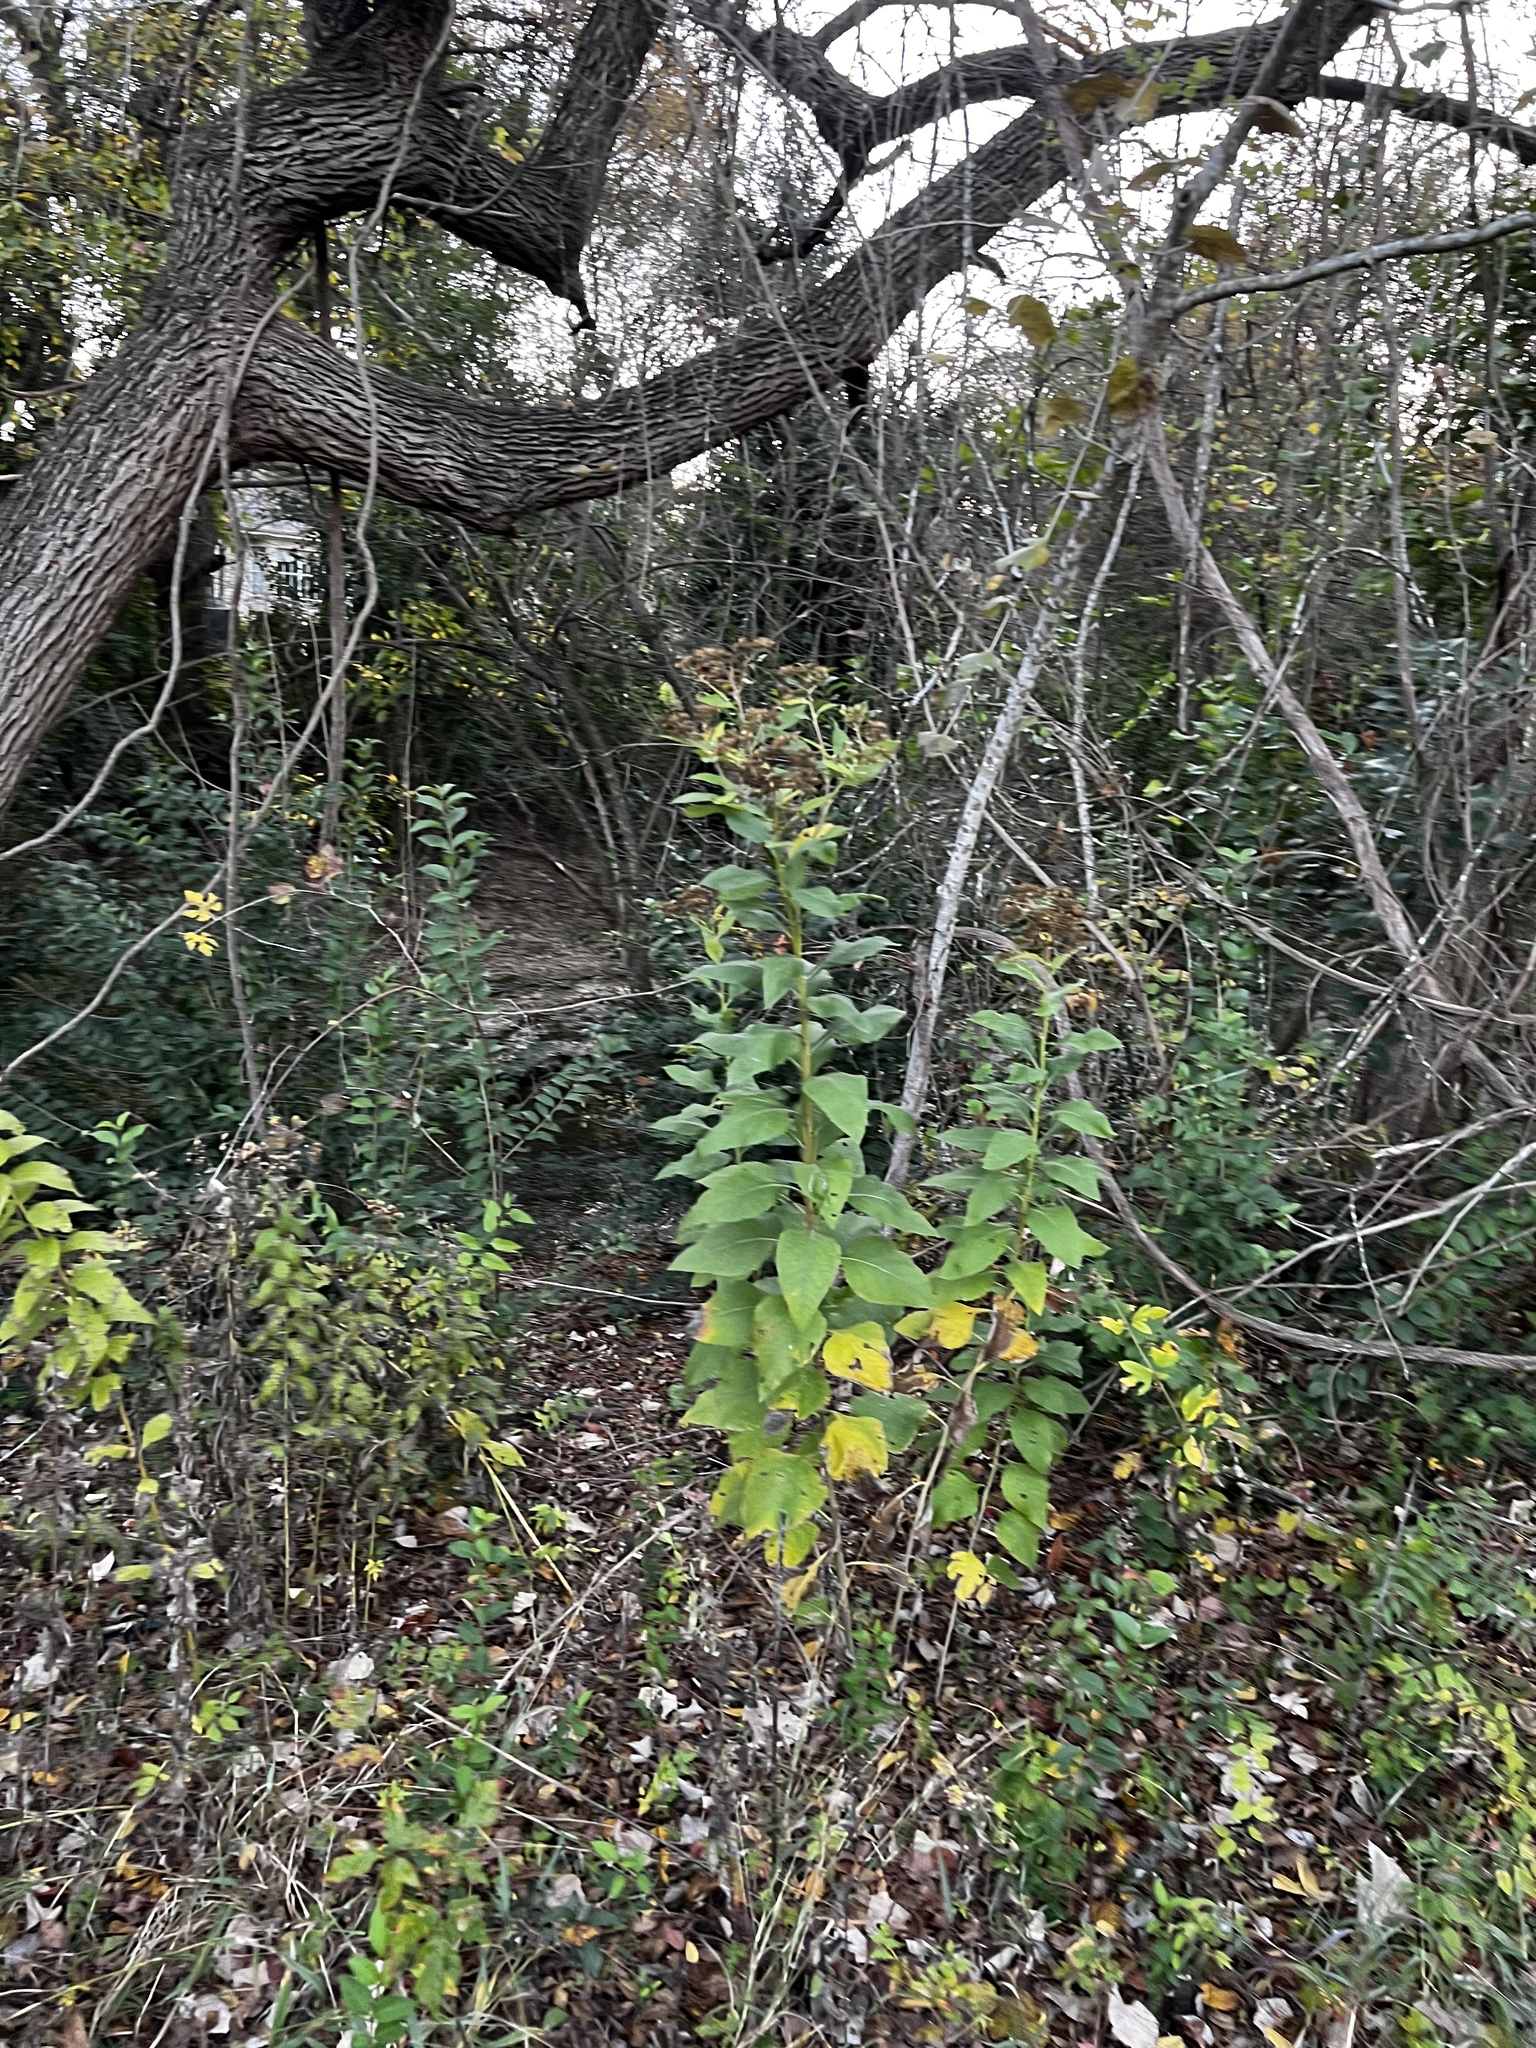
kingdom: Plantae
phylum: Tracheophyta
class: Magnoliopsida
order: Asterales
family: Asteraceae
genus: Verbesina
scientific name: Verbesina virginica
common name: Frostweed
